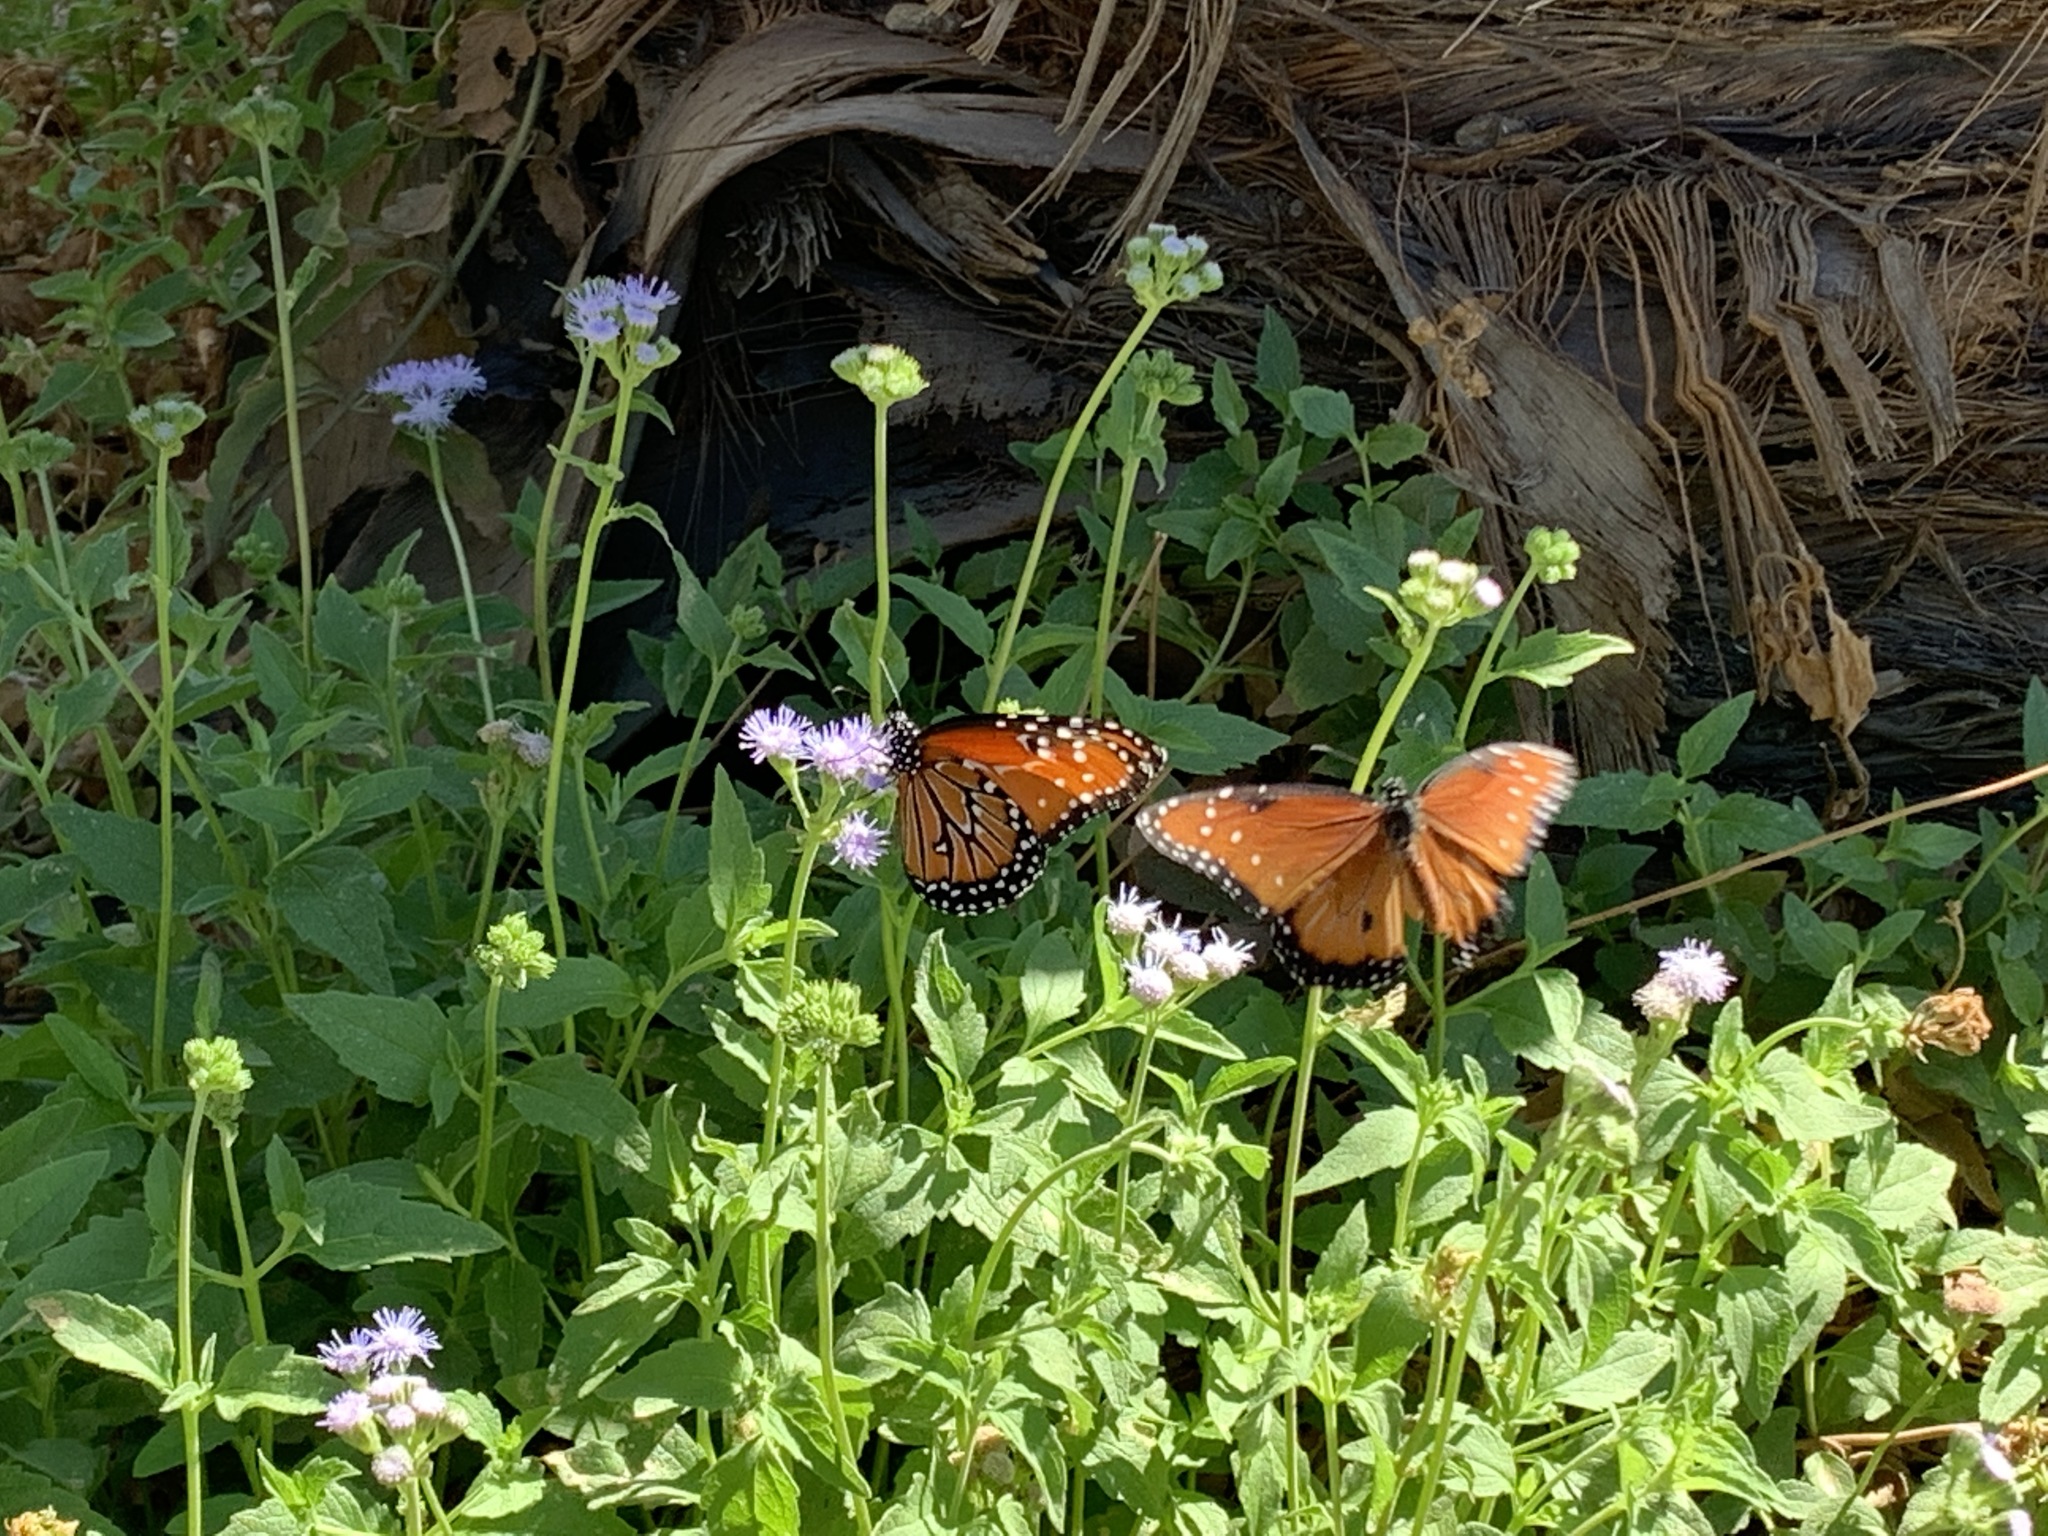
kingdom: Animalia
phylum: Arthropoda
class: Insecta
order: Lepidoptera
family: Nymphalidae
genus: Danaus
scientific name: Danaus gilippus
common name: Queen
